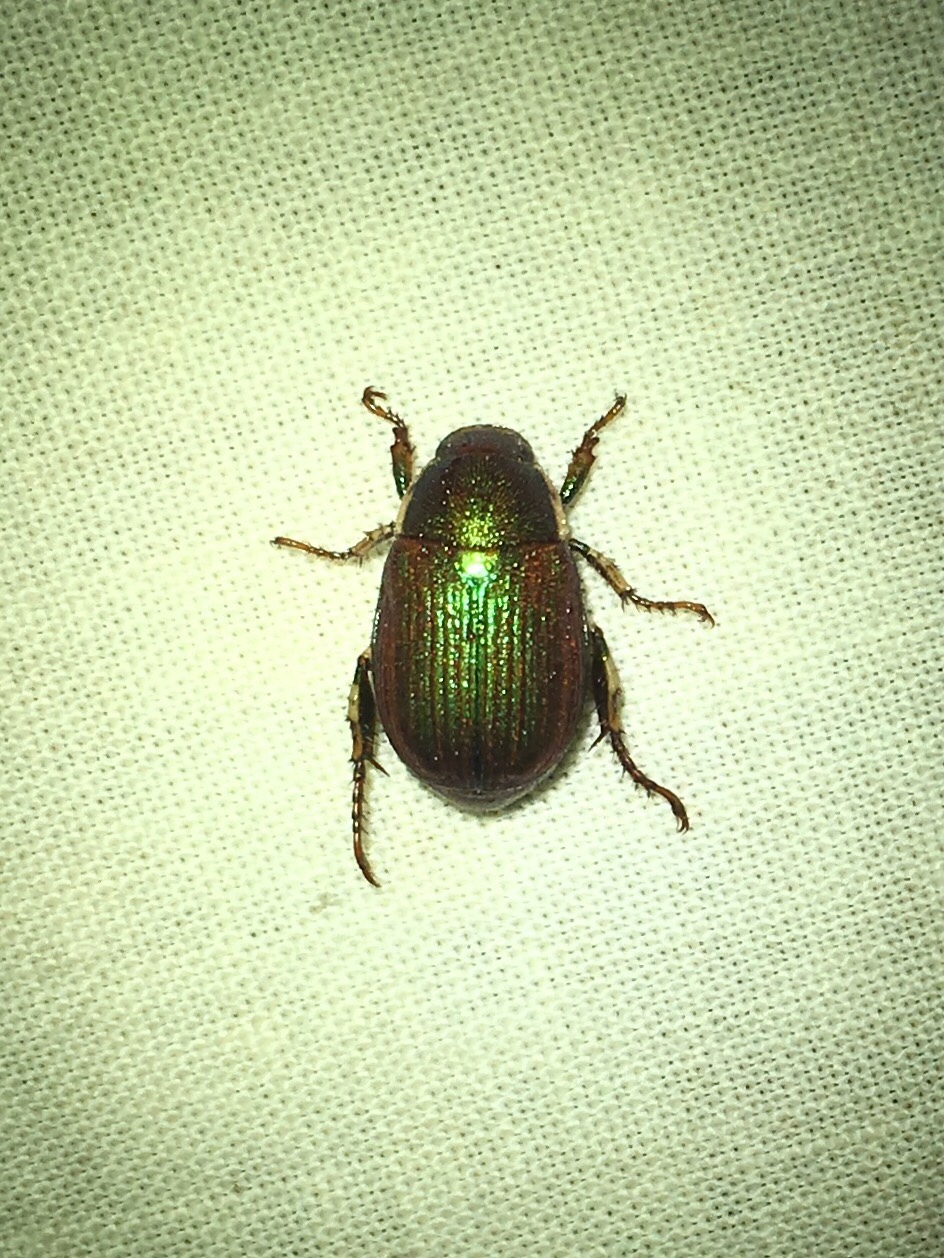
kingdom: Animalia
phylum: Arthropoda
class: Insecta
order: Coleoptera
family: Scarabaeidae
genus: Callistethus
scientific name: Callistethus marginatus
